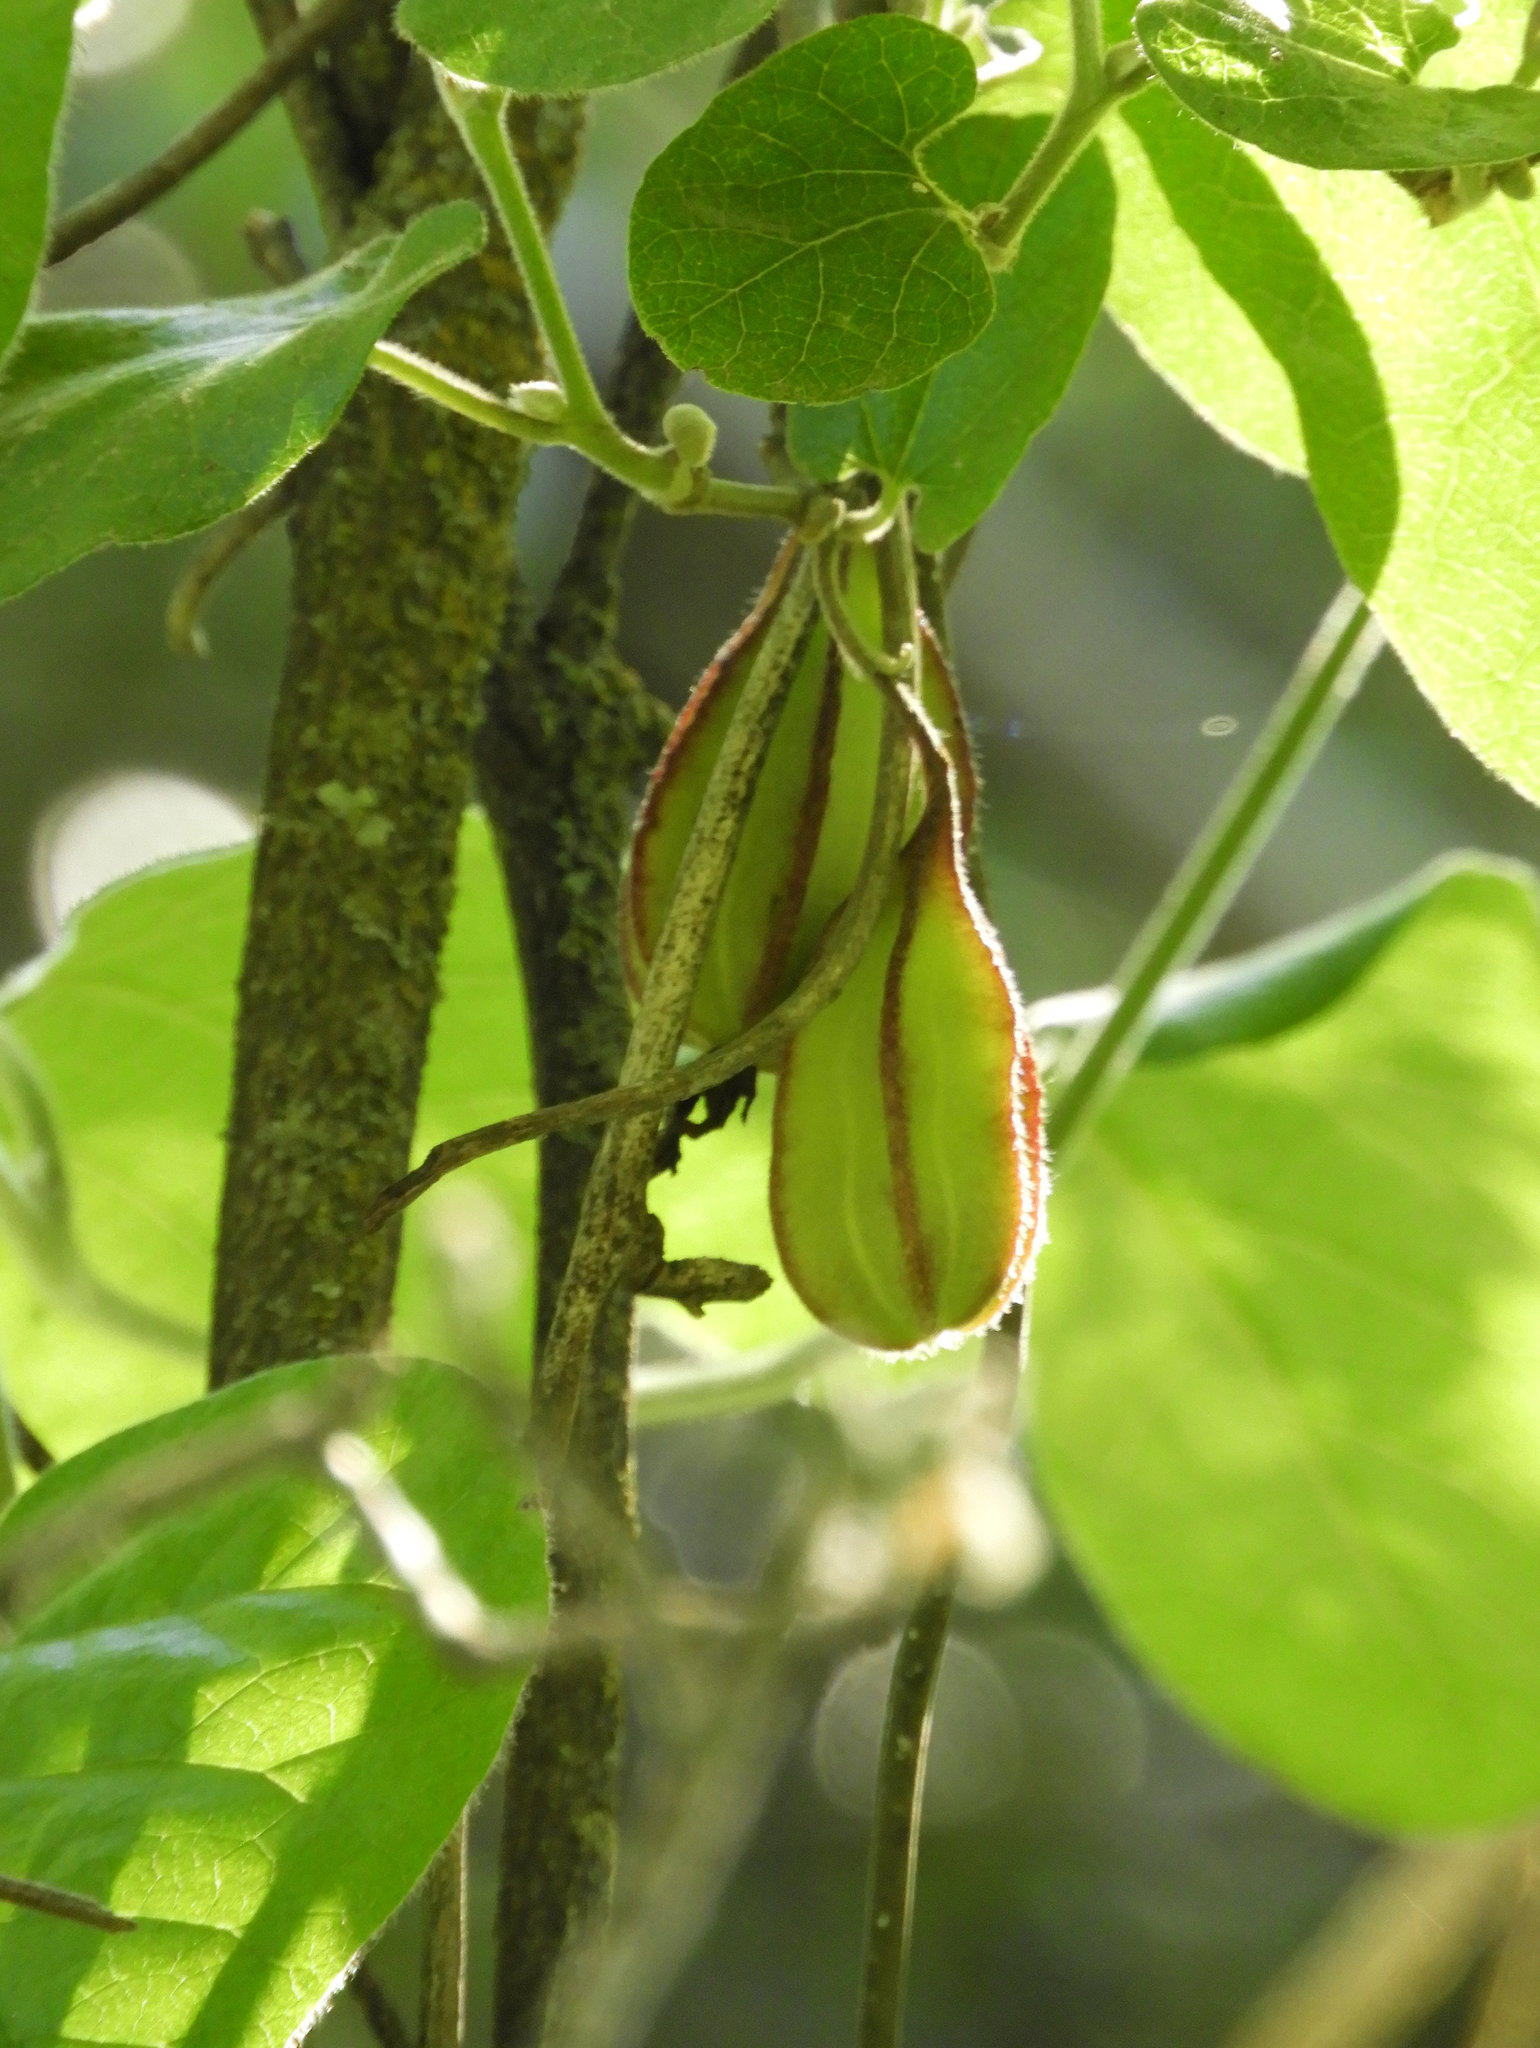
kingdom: Plantae
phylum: Tracheophyta
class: Magnoliopsida
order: Piperales
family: Aristolochiaceae
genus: Isotrema
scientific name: Isotrema californicum
